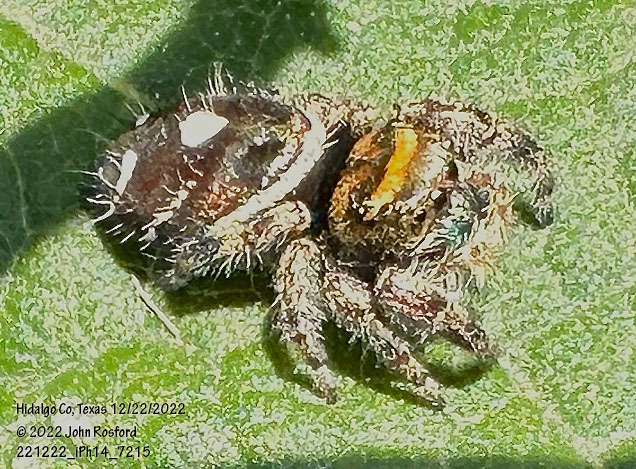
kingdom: Animalia
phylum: Arthropoda
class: Arachnida
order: Araneae
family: Salticidae
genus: Phidippus
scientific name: Phidippus audax
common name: Bold jumper
